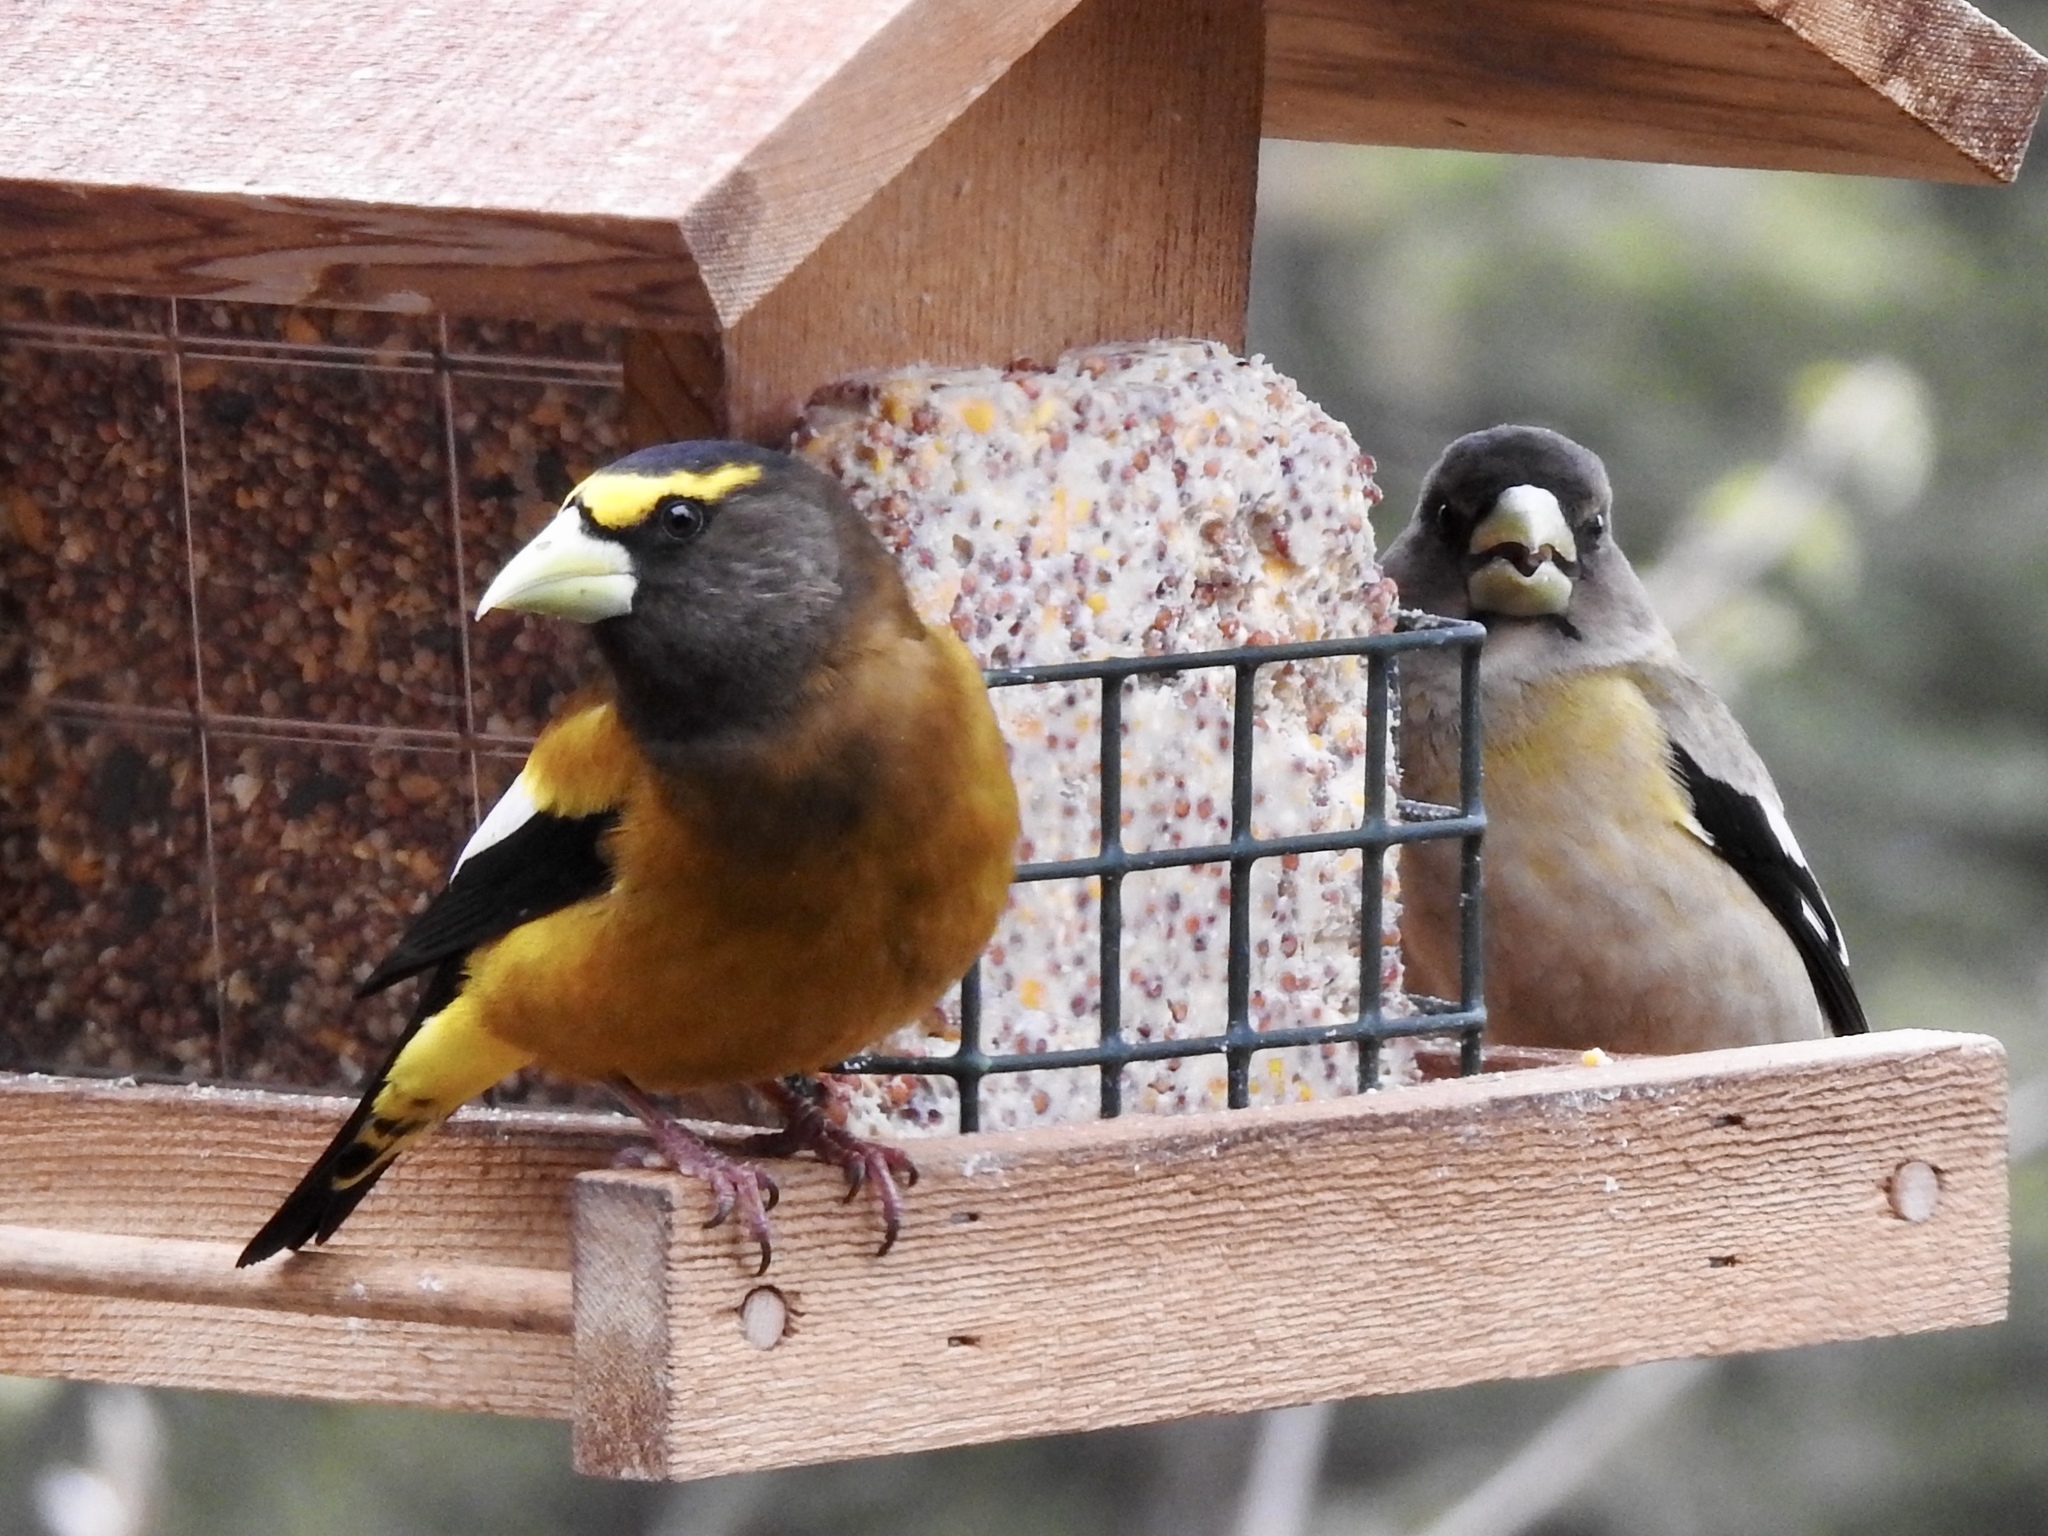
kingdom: Animalia
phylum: Chordata
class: Aves
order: Passeriformes
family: Fringillidae
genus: Hesperiphona
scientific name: Hesperiphona vespertina
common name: Evening grosbeak
